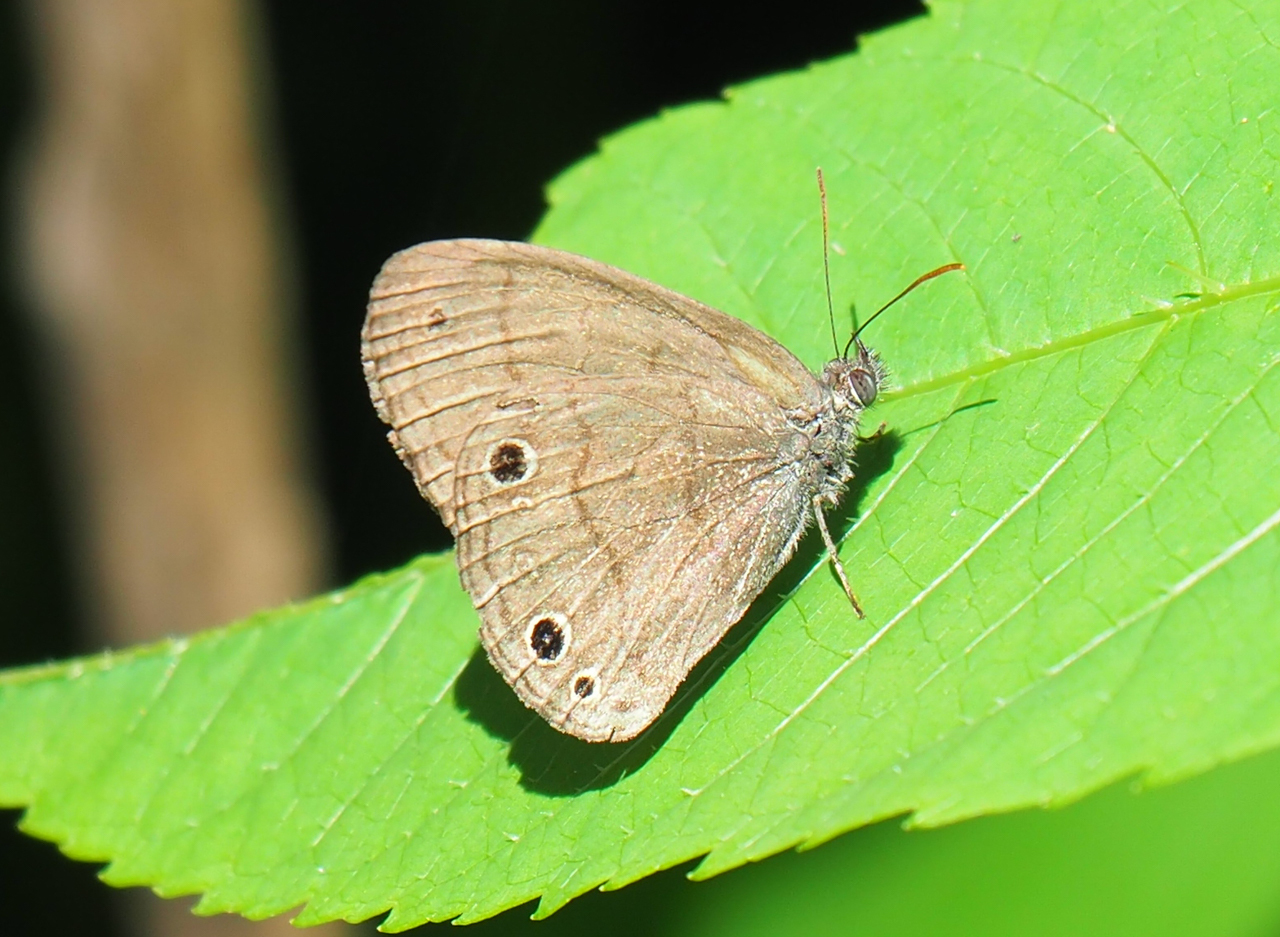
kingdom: Animalia
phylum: Arthropoda
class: Insecta
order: Lepidoptera
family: Nymphalidae
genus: Hermeuptychia
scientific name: Hermeuptychia hermes
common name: Hermes satyr
